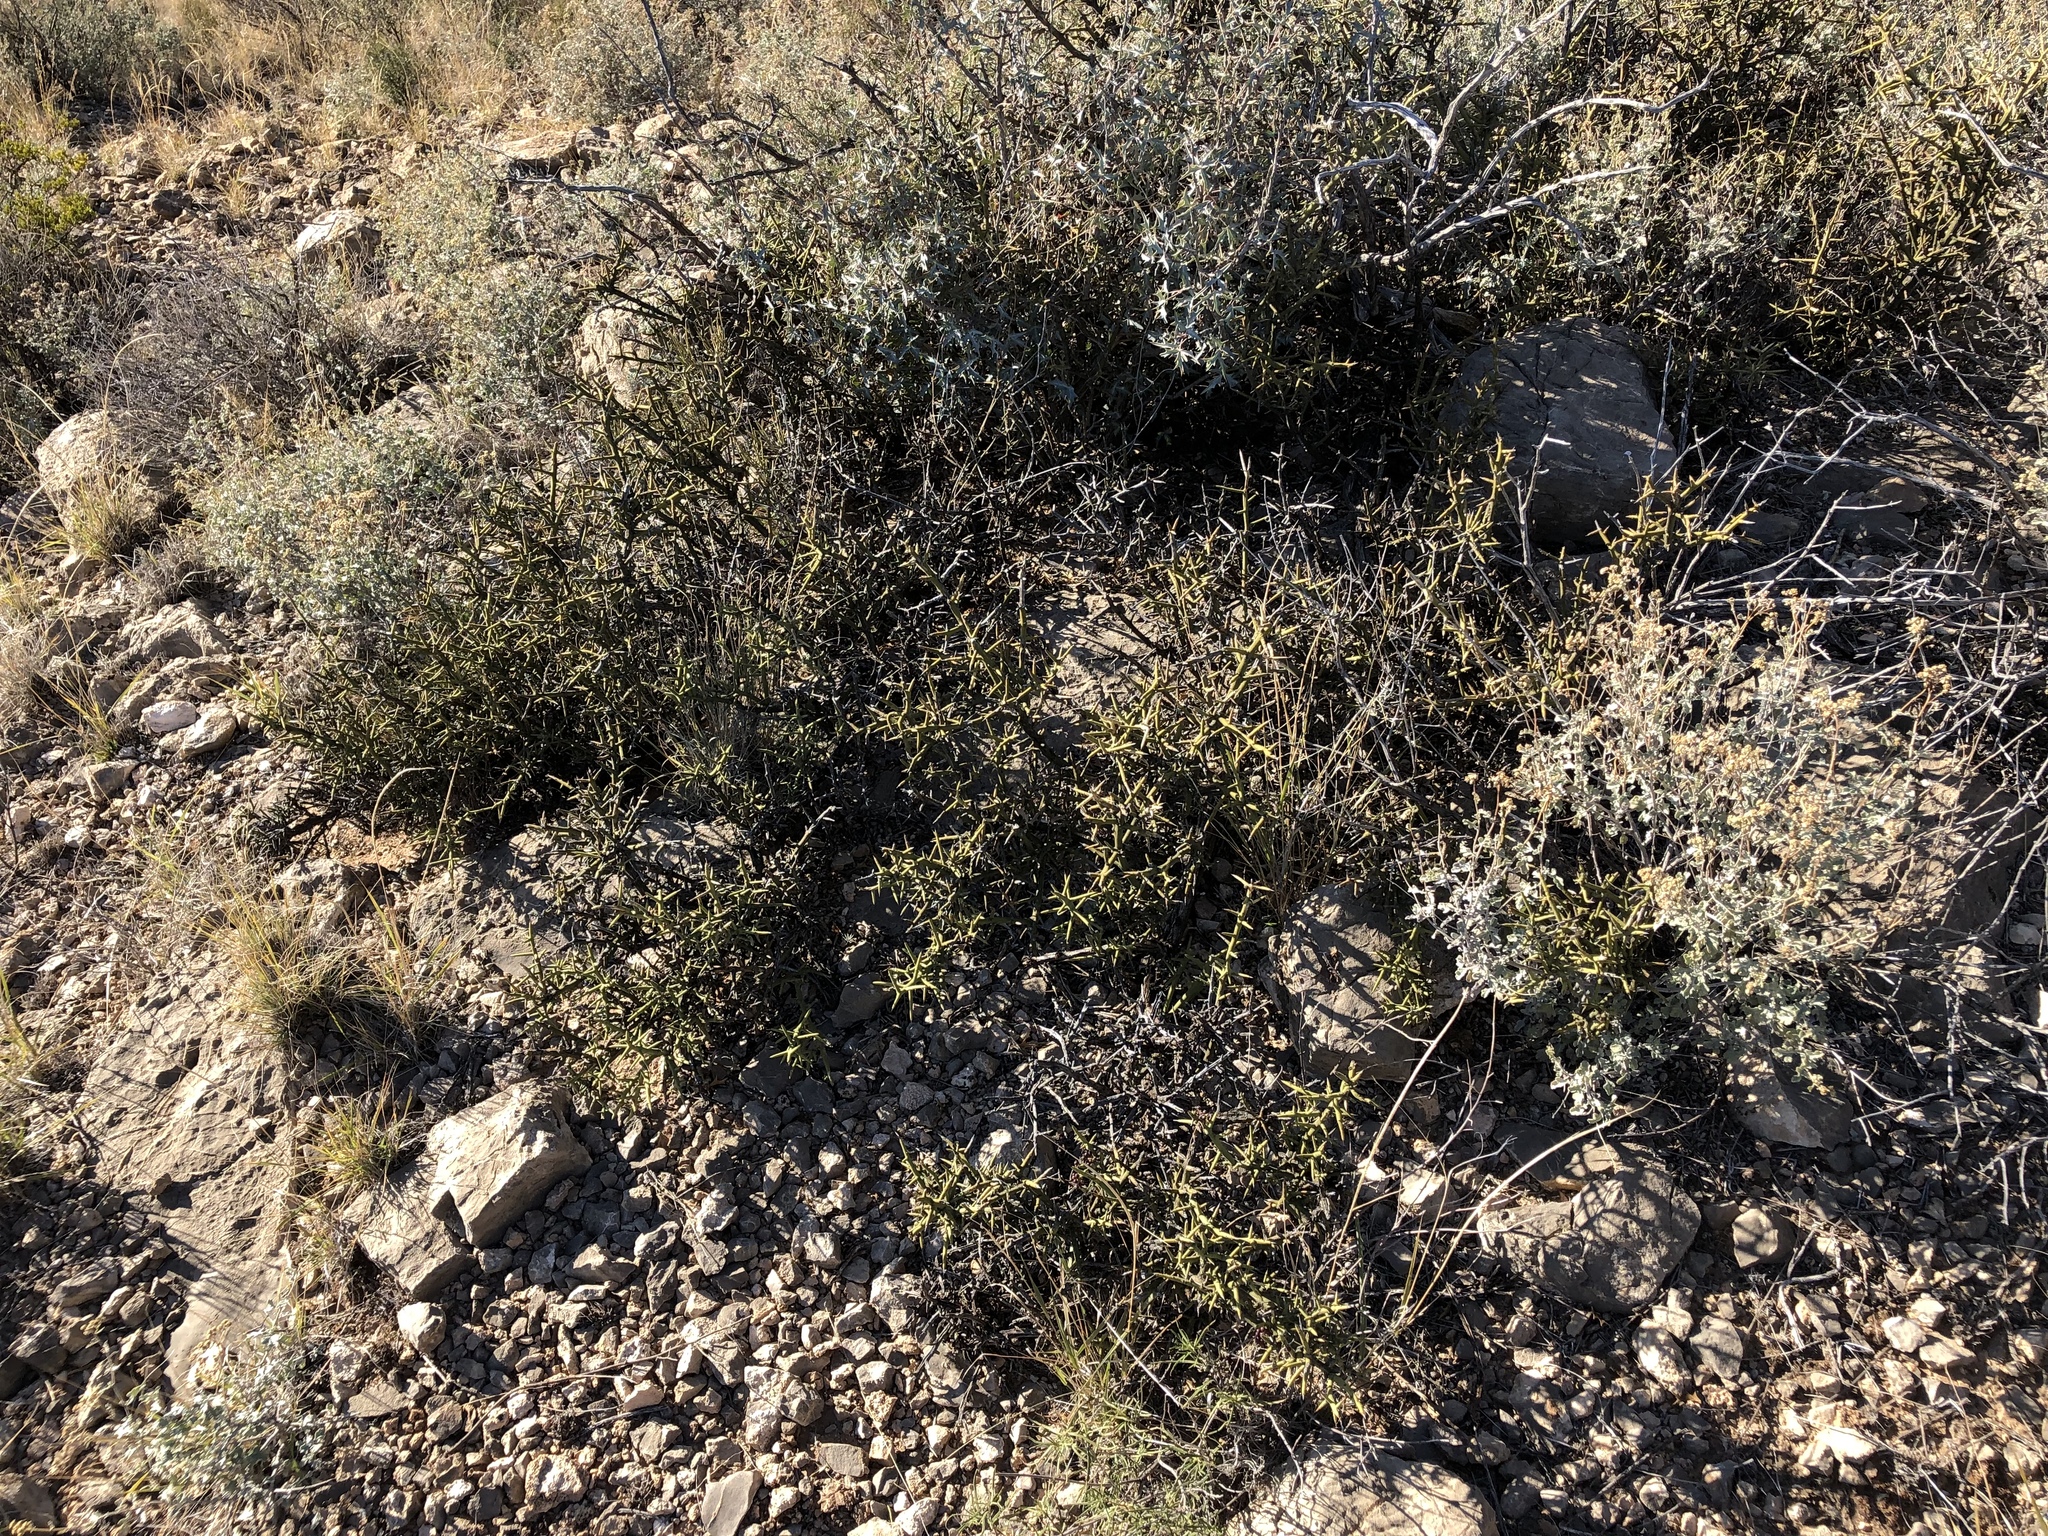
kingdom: Plantae
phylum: Tracheophyta
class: Magnoliopsida
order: Brassicales
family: Koeberliniaceae
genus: Koeberlinia
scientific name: Koeberlinia spinosa
